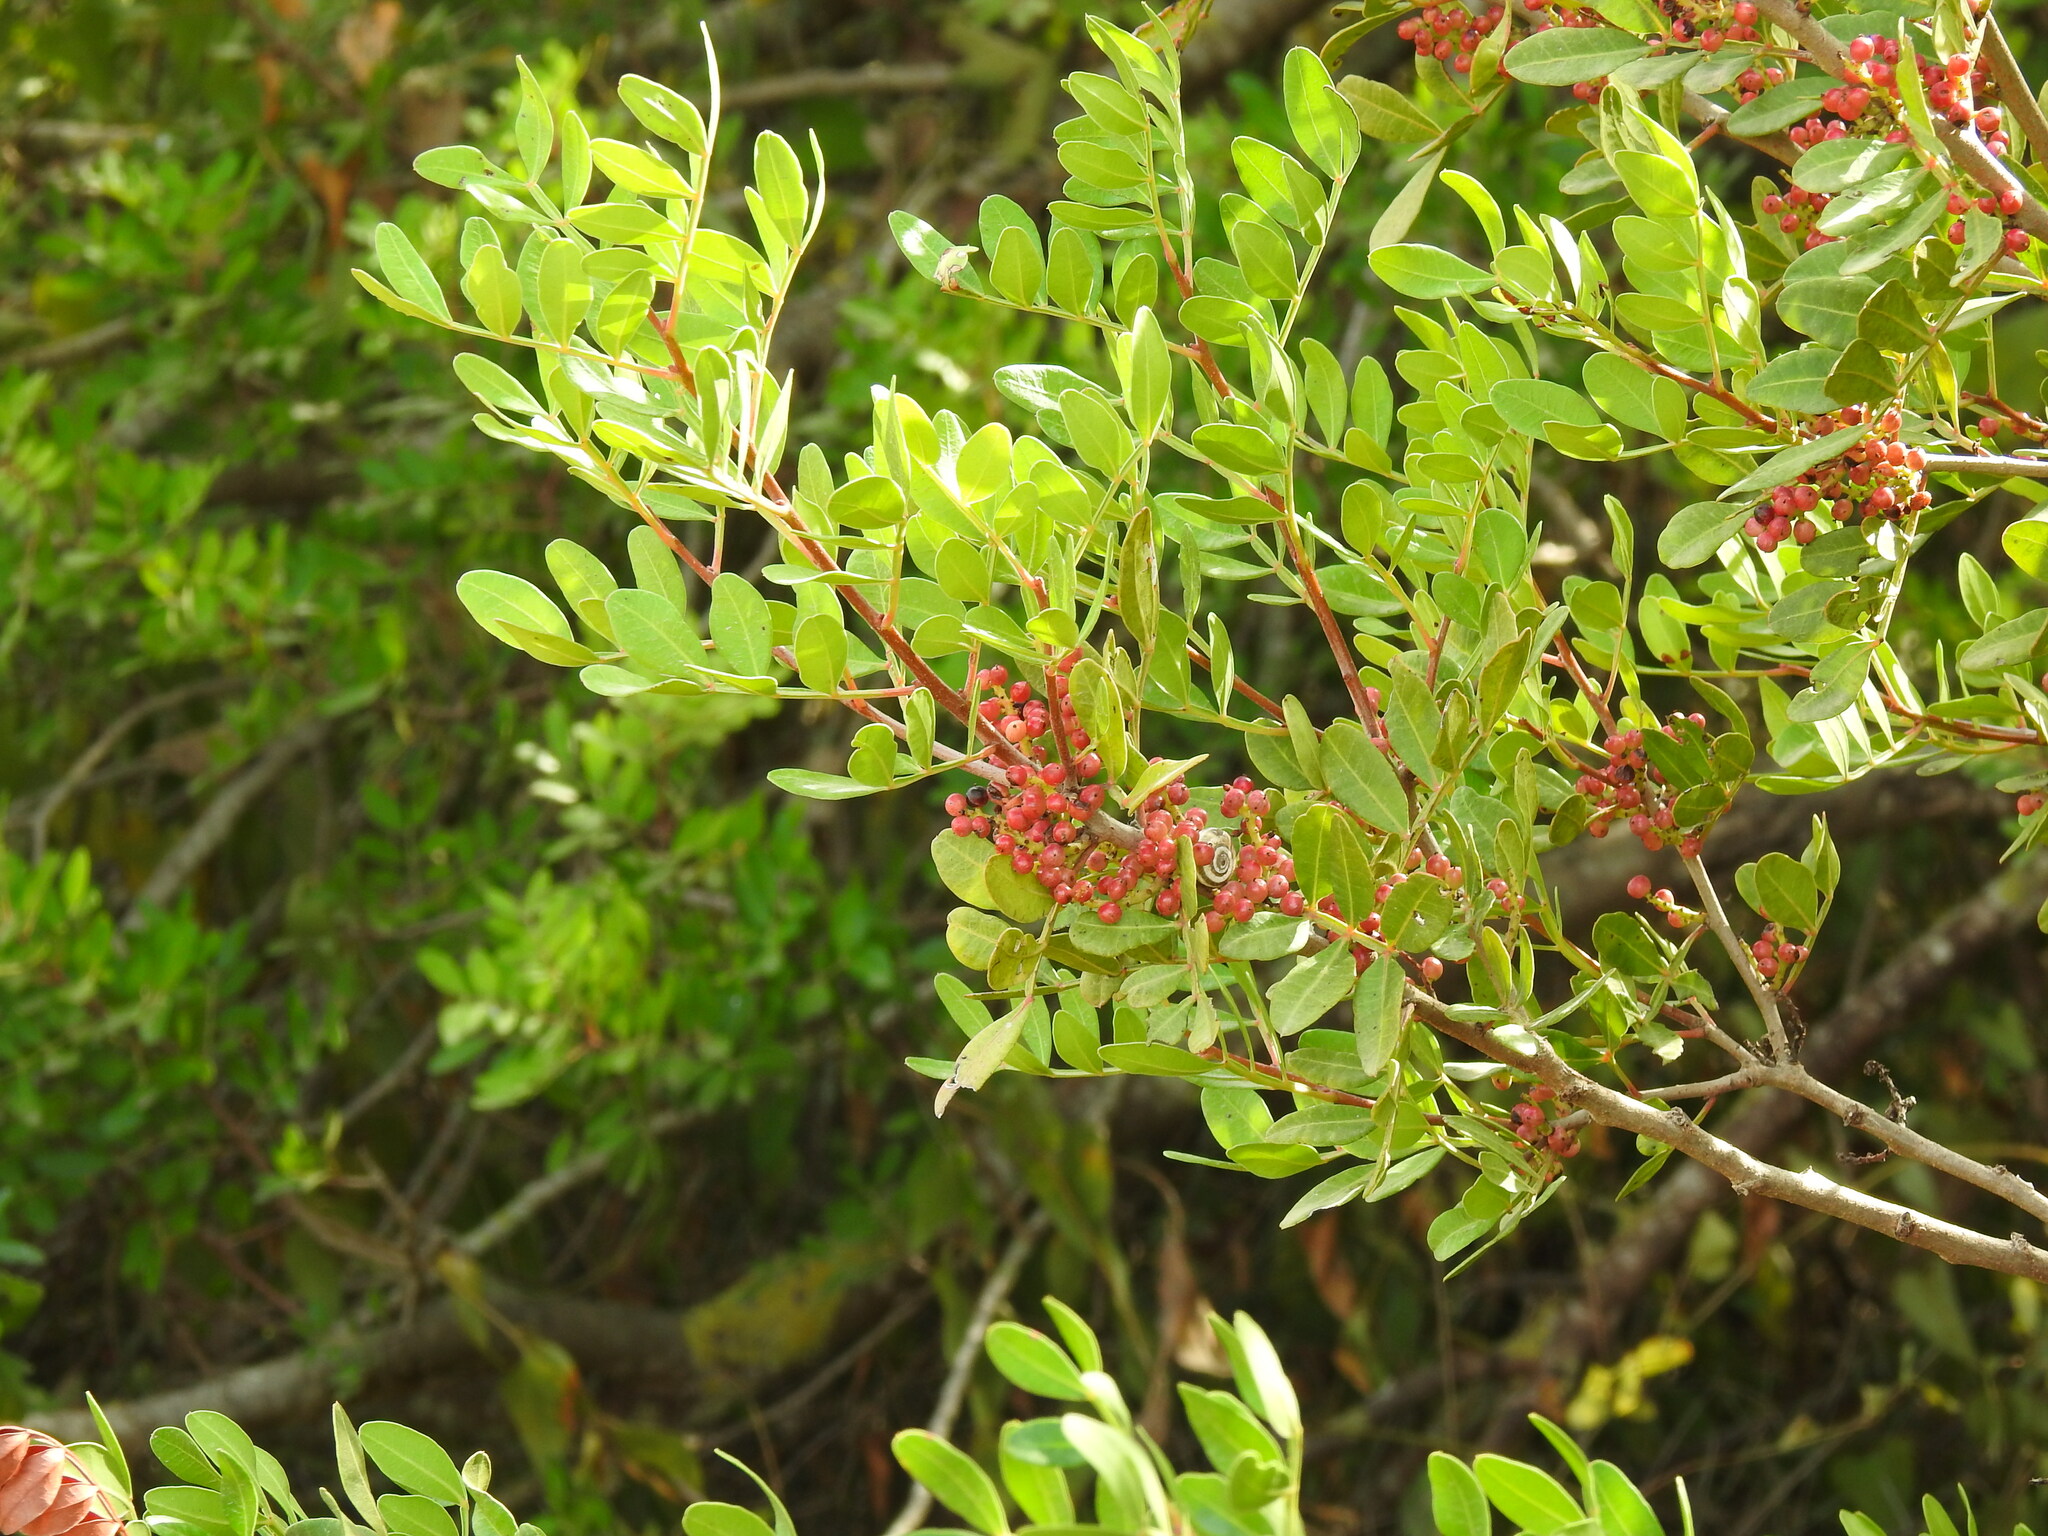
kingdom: Plantae
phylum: Tracheophyta
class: Magnoliopsida
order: Sapindales
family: Anacardiaceae
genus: Pistacia
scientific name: Pistacia lentiscus
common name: Lentisk
